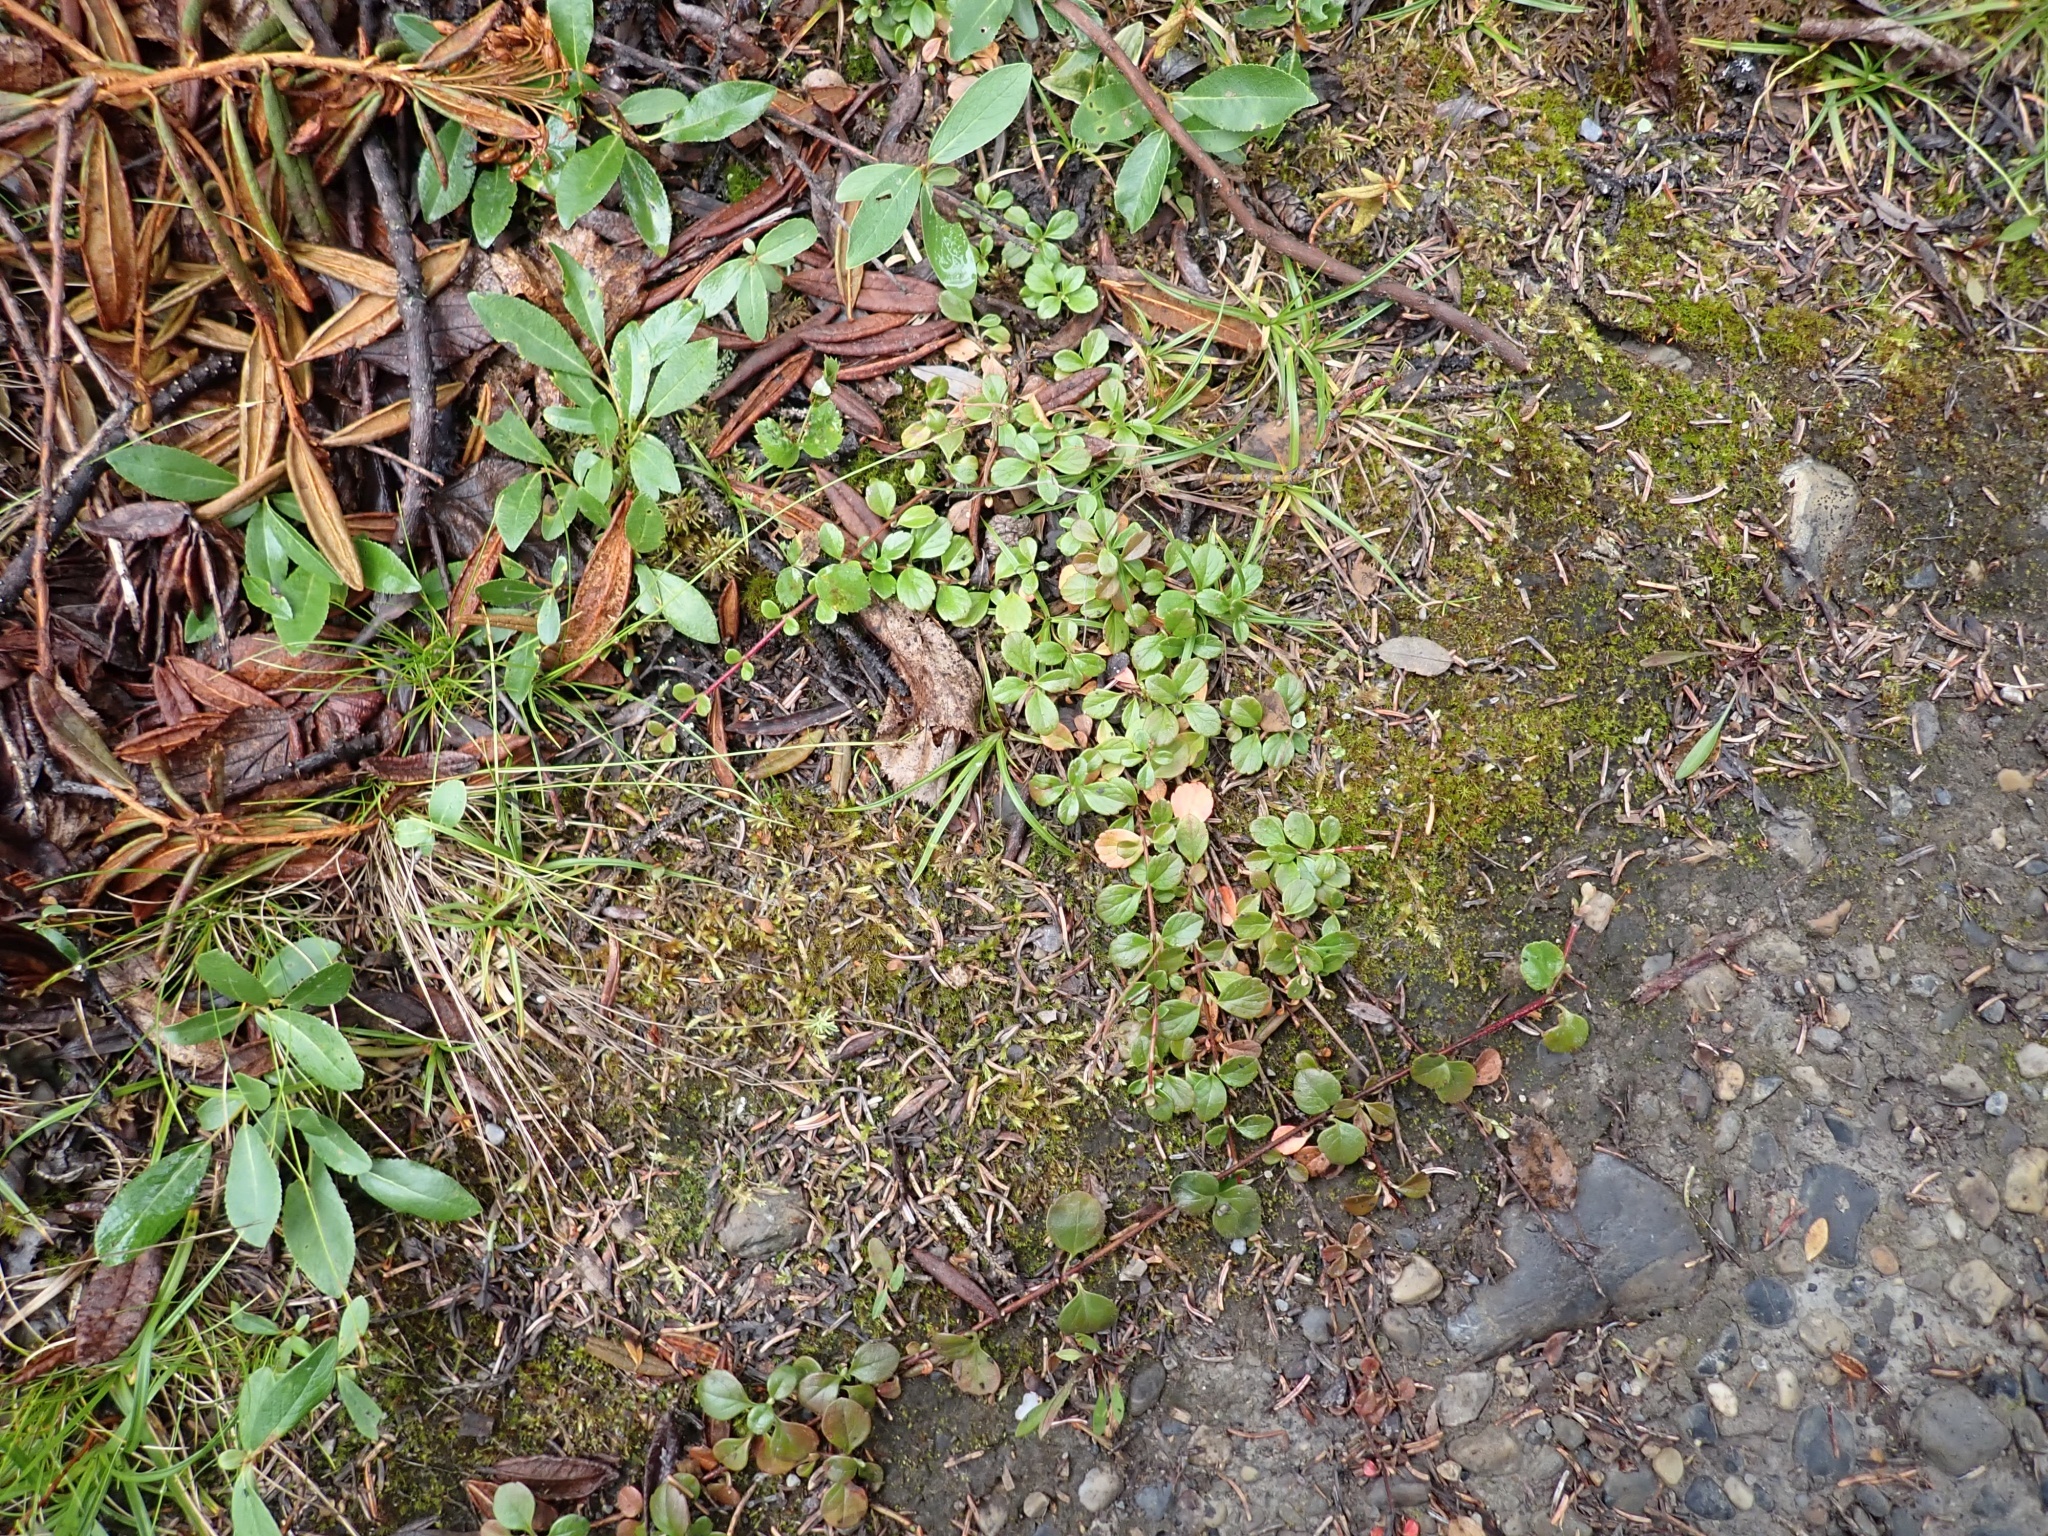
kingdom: Plantae
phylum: Tracheophyta
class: Magnoliopsida
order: Dipsacales
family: Caprifoliaceae
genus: Linnaea
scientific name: Linnaea borealis
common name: Twinflower
